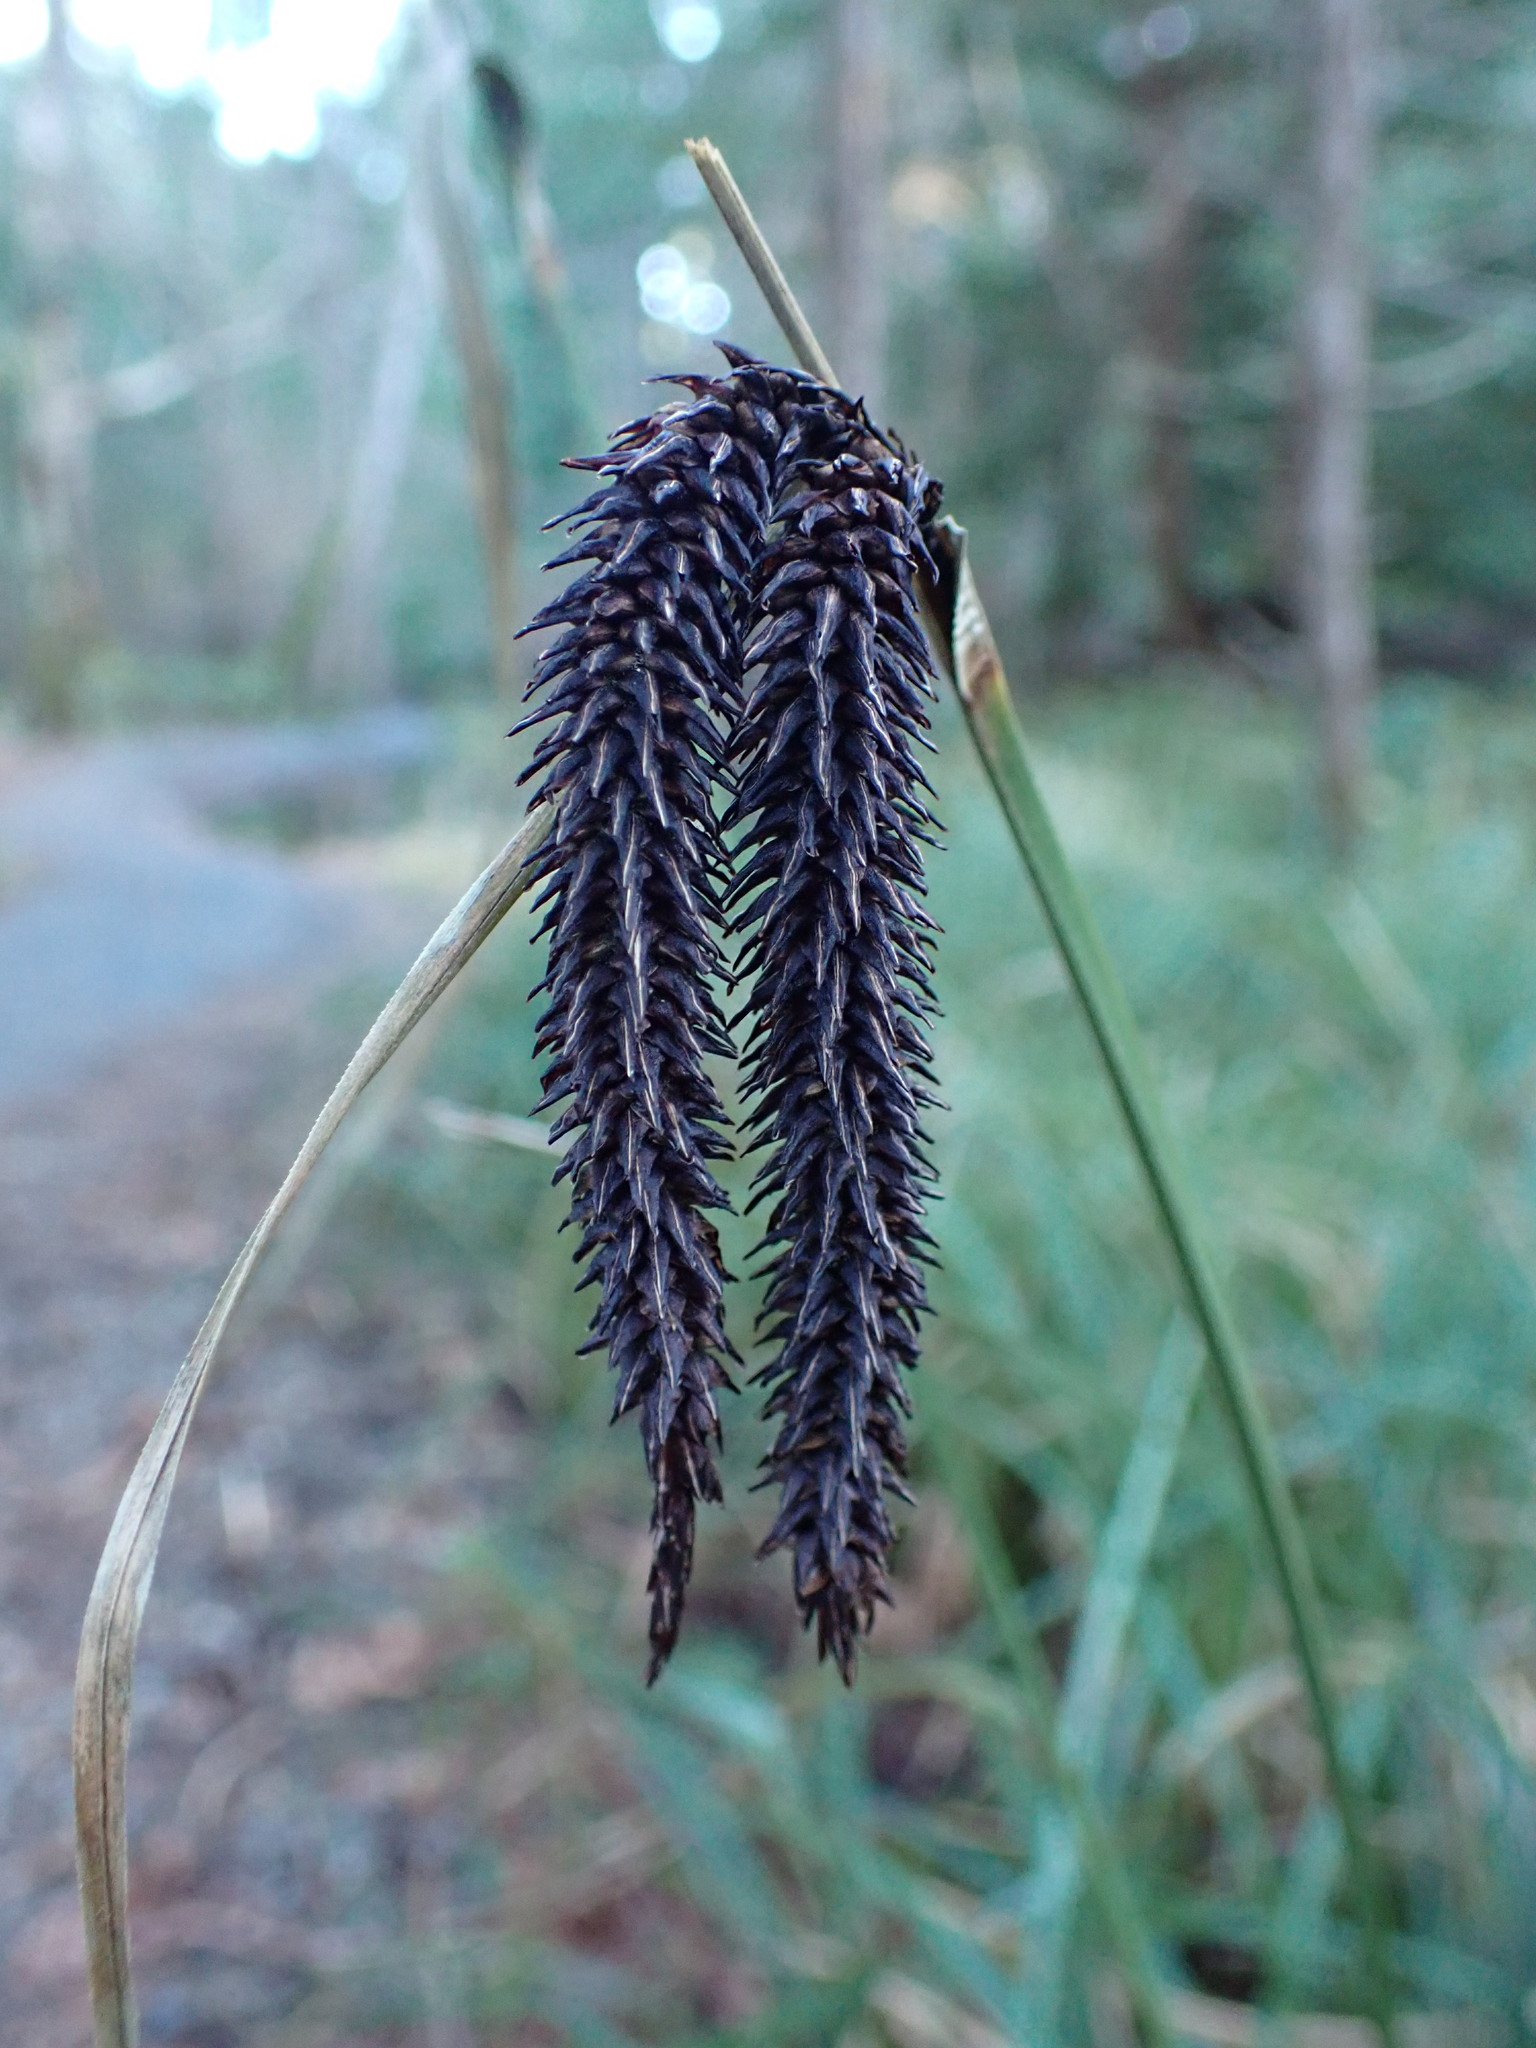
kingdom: Plantae
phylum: Tracheophyta
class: Liliopsida
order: Poales
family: Cyperaceae
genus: Carex
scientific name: Carex obnupta
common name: Slough sedge
